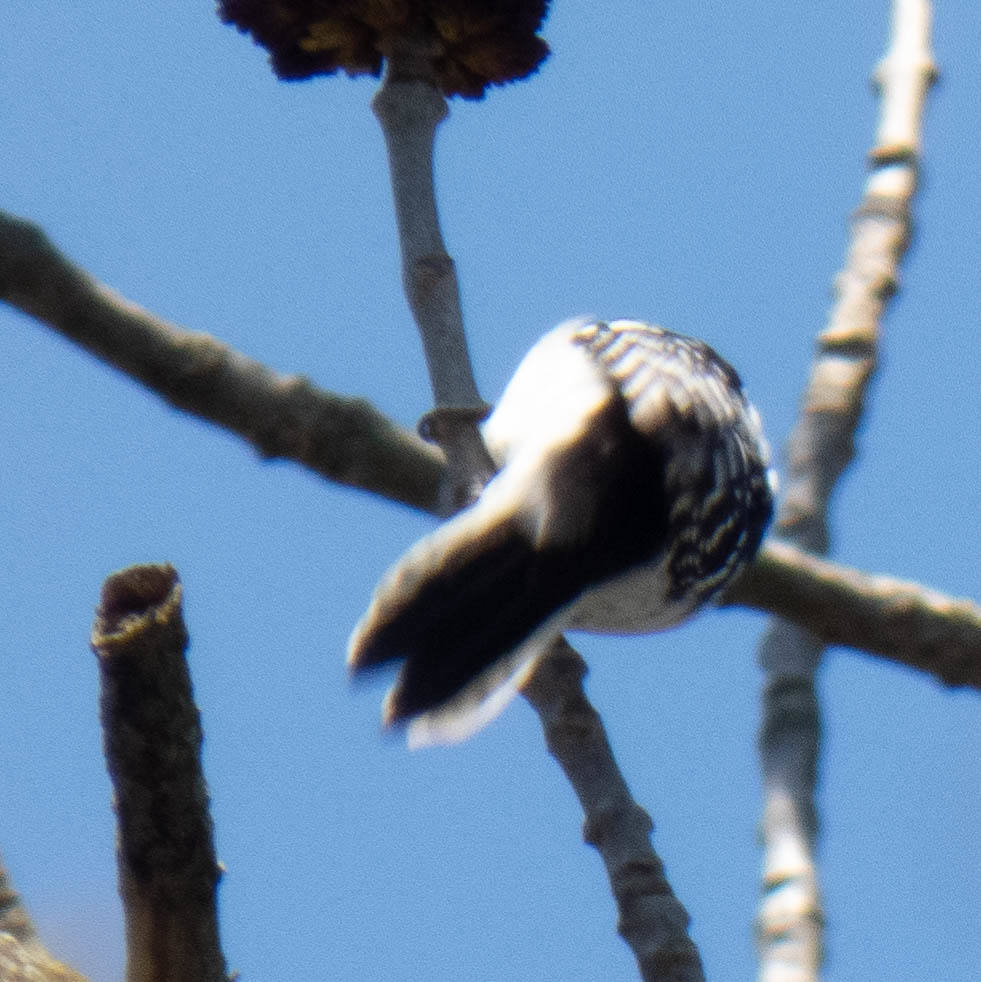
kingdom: Animalia
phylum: Chordata
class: Aves
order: Piciformes
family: Picidae
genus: Dryobates
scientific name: Dryobates pubescens
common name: Downy woodpecker
